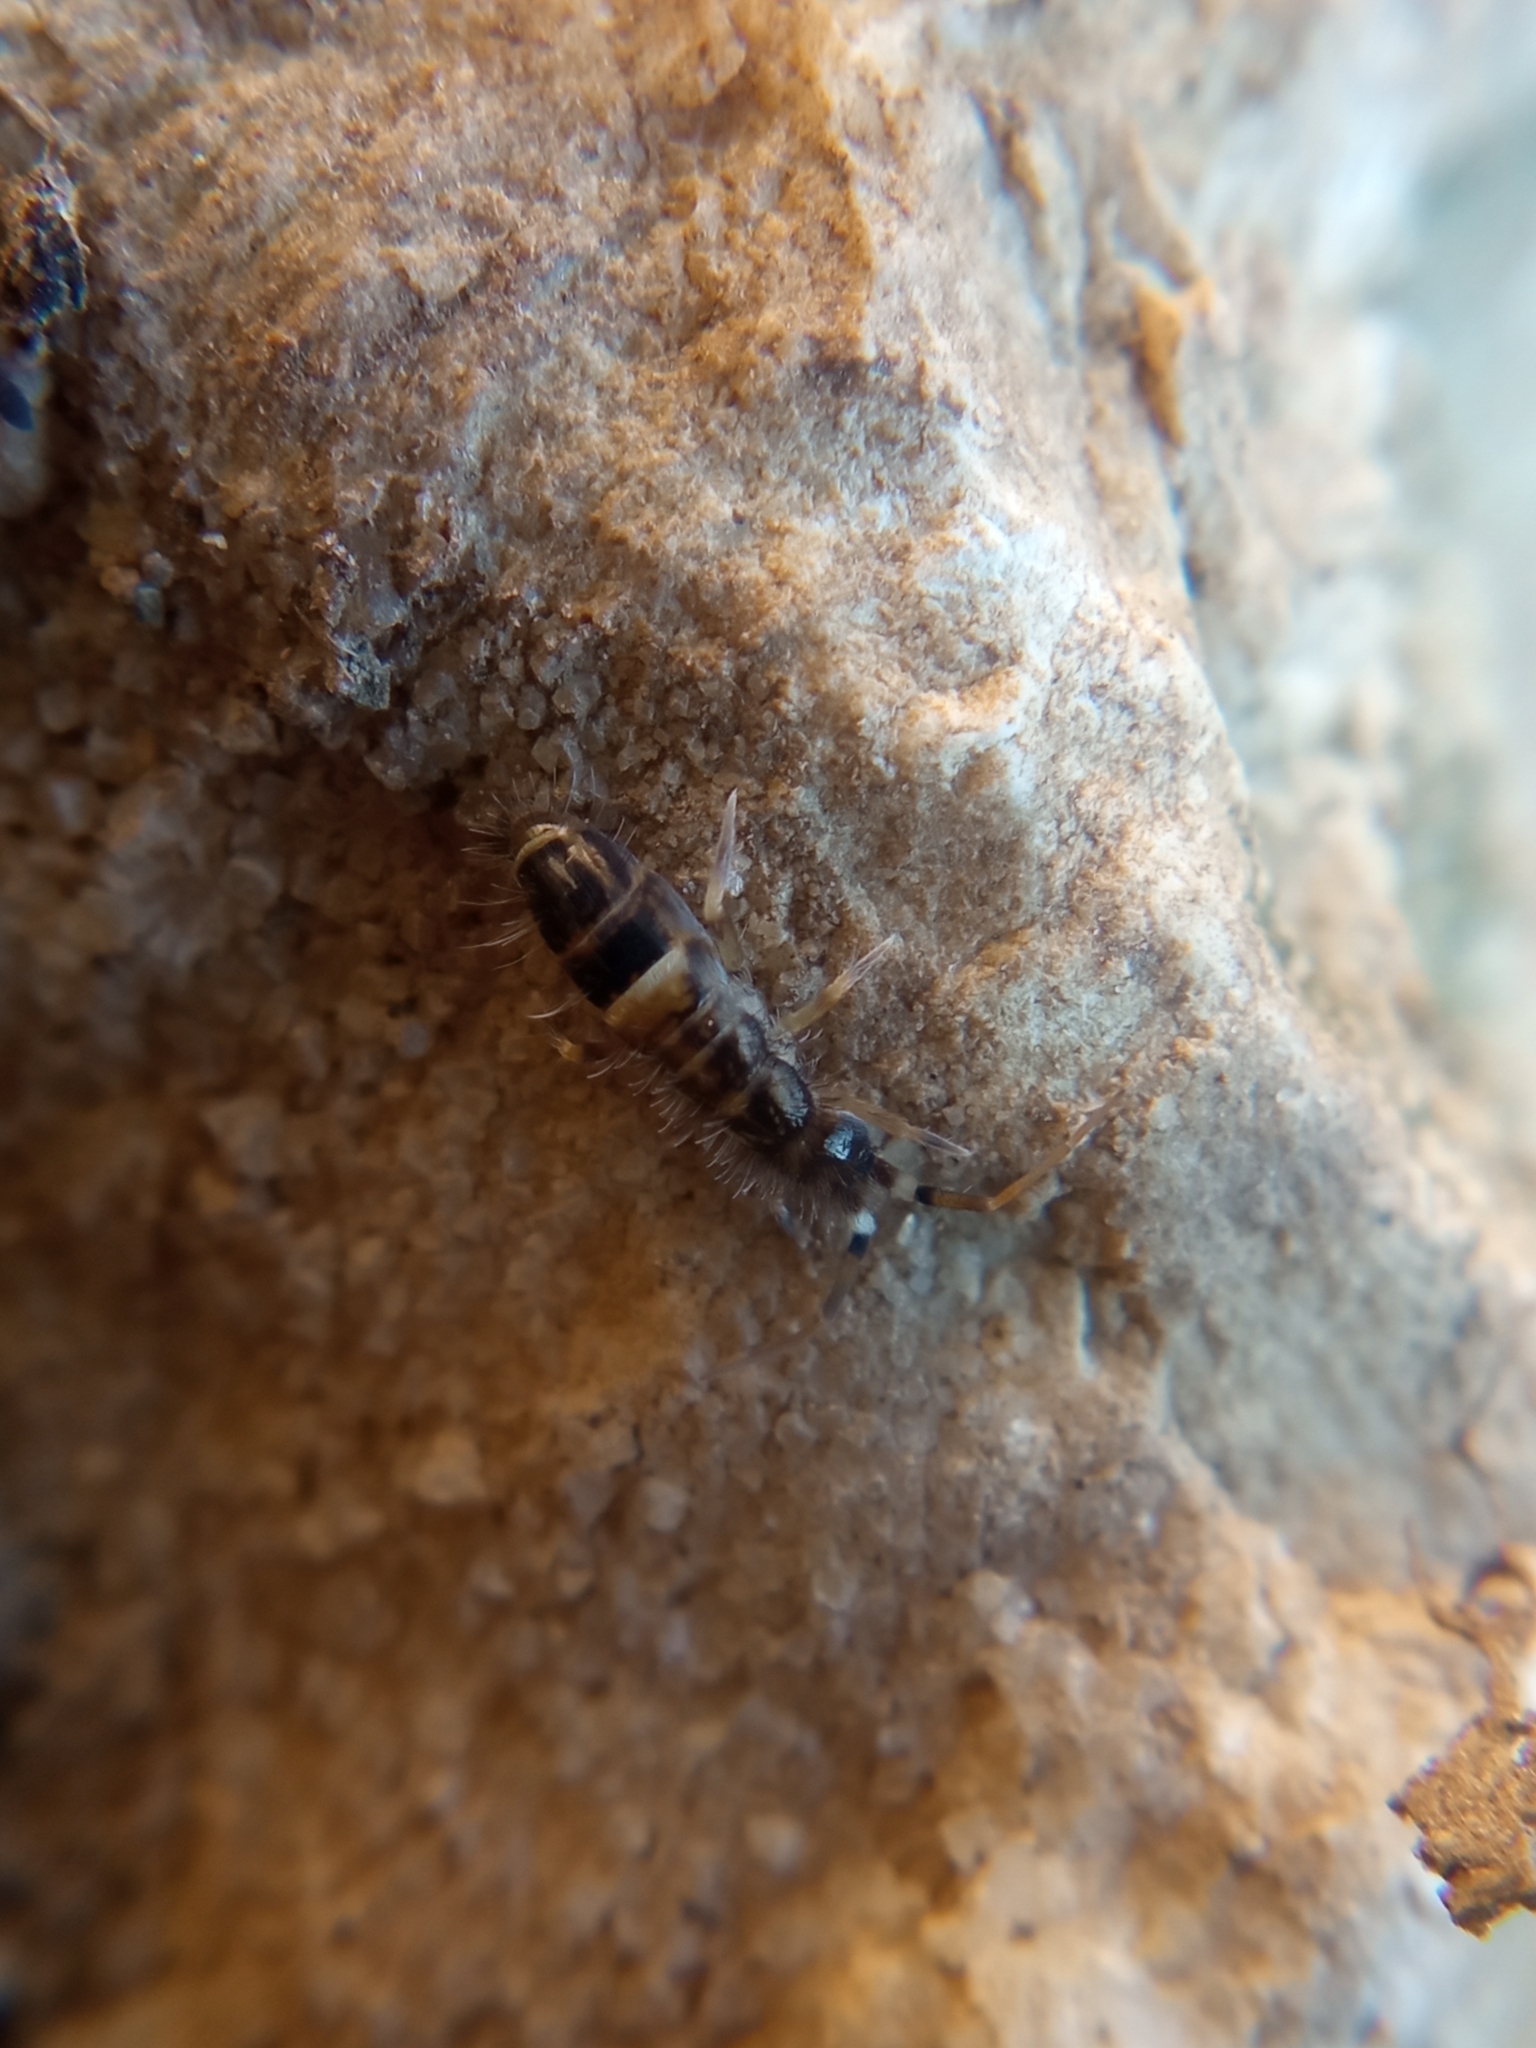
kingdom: Animalia
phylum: Arthropoda
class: Collembola
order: Entomobryomorpha
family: Orchesellidae
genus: Orchesella
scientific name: Orchesella cincta
